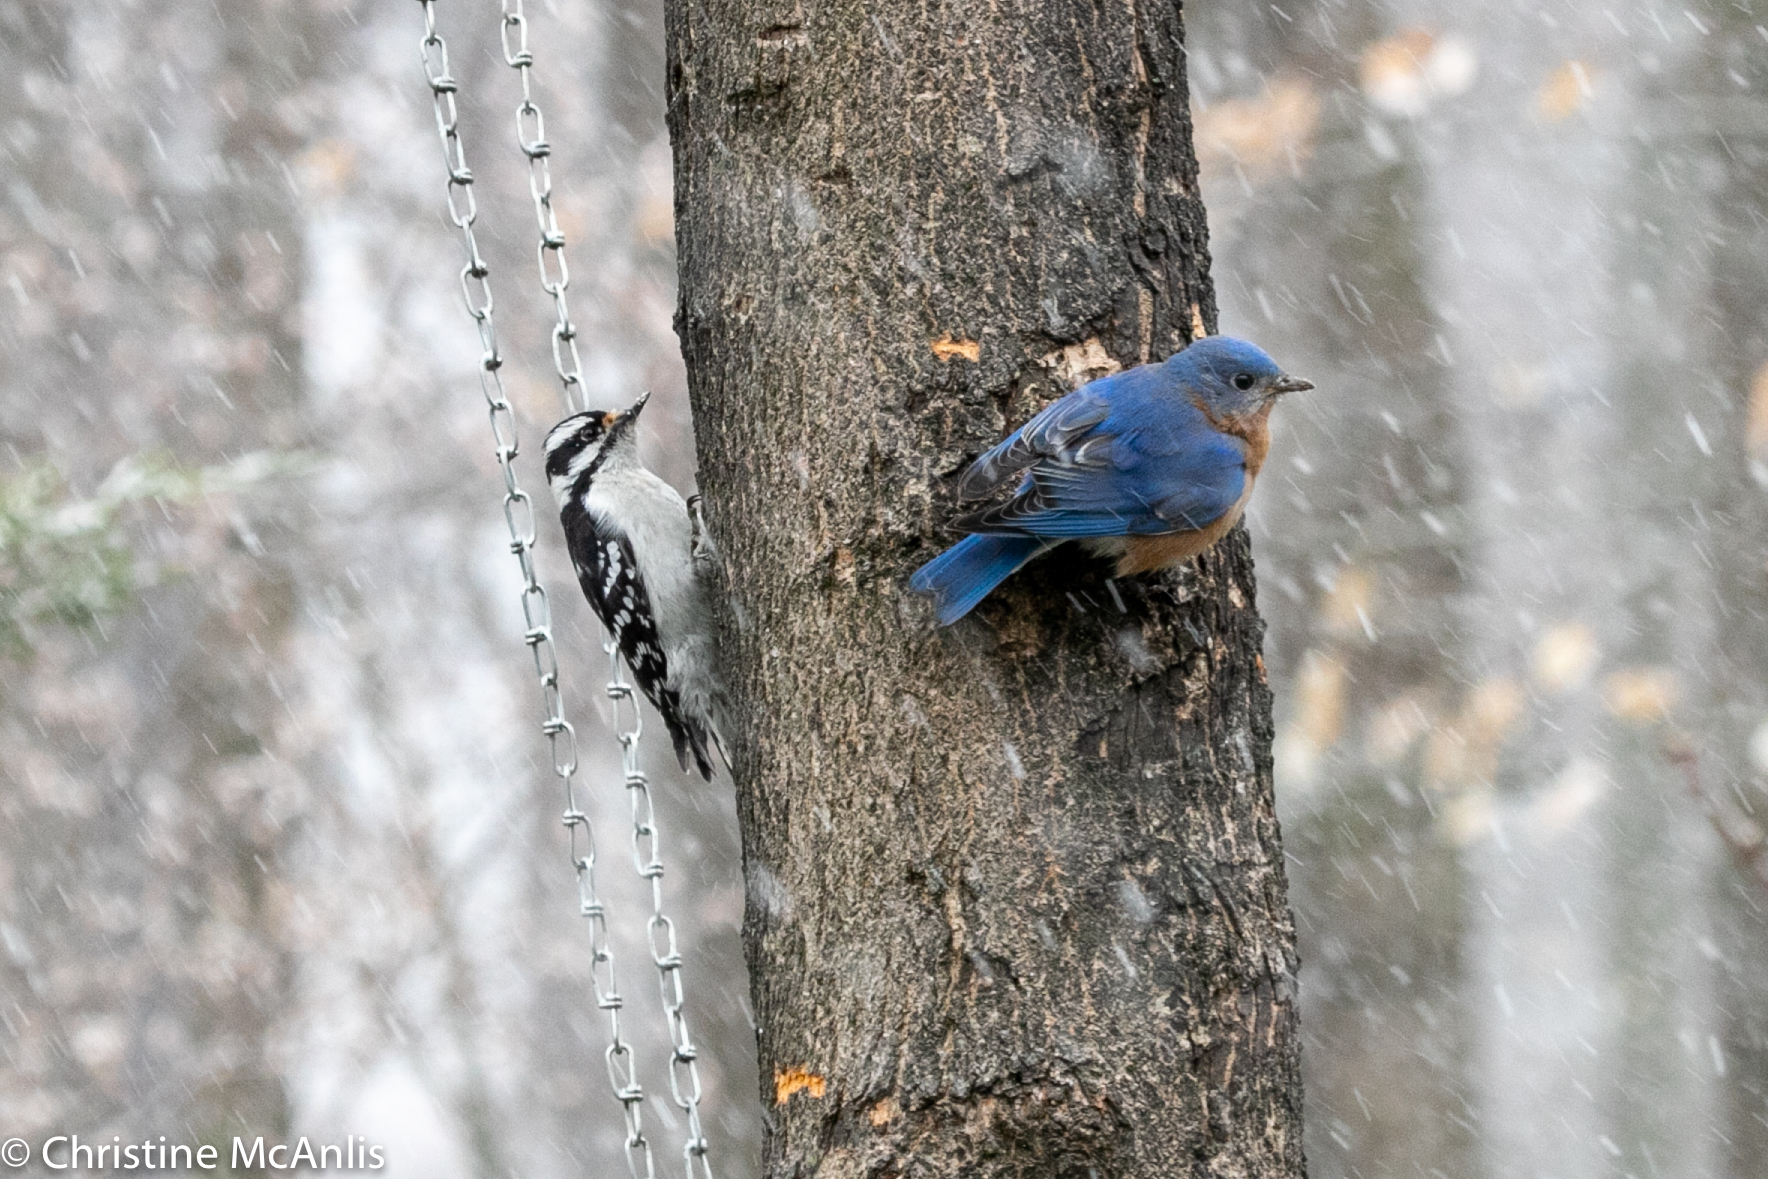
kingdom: Animalia
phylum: Chordata
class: Aves
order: Passeriformes
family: Turdidae
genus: Sialia
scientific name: Sialia sialis
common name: Eastern bluebird
